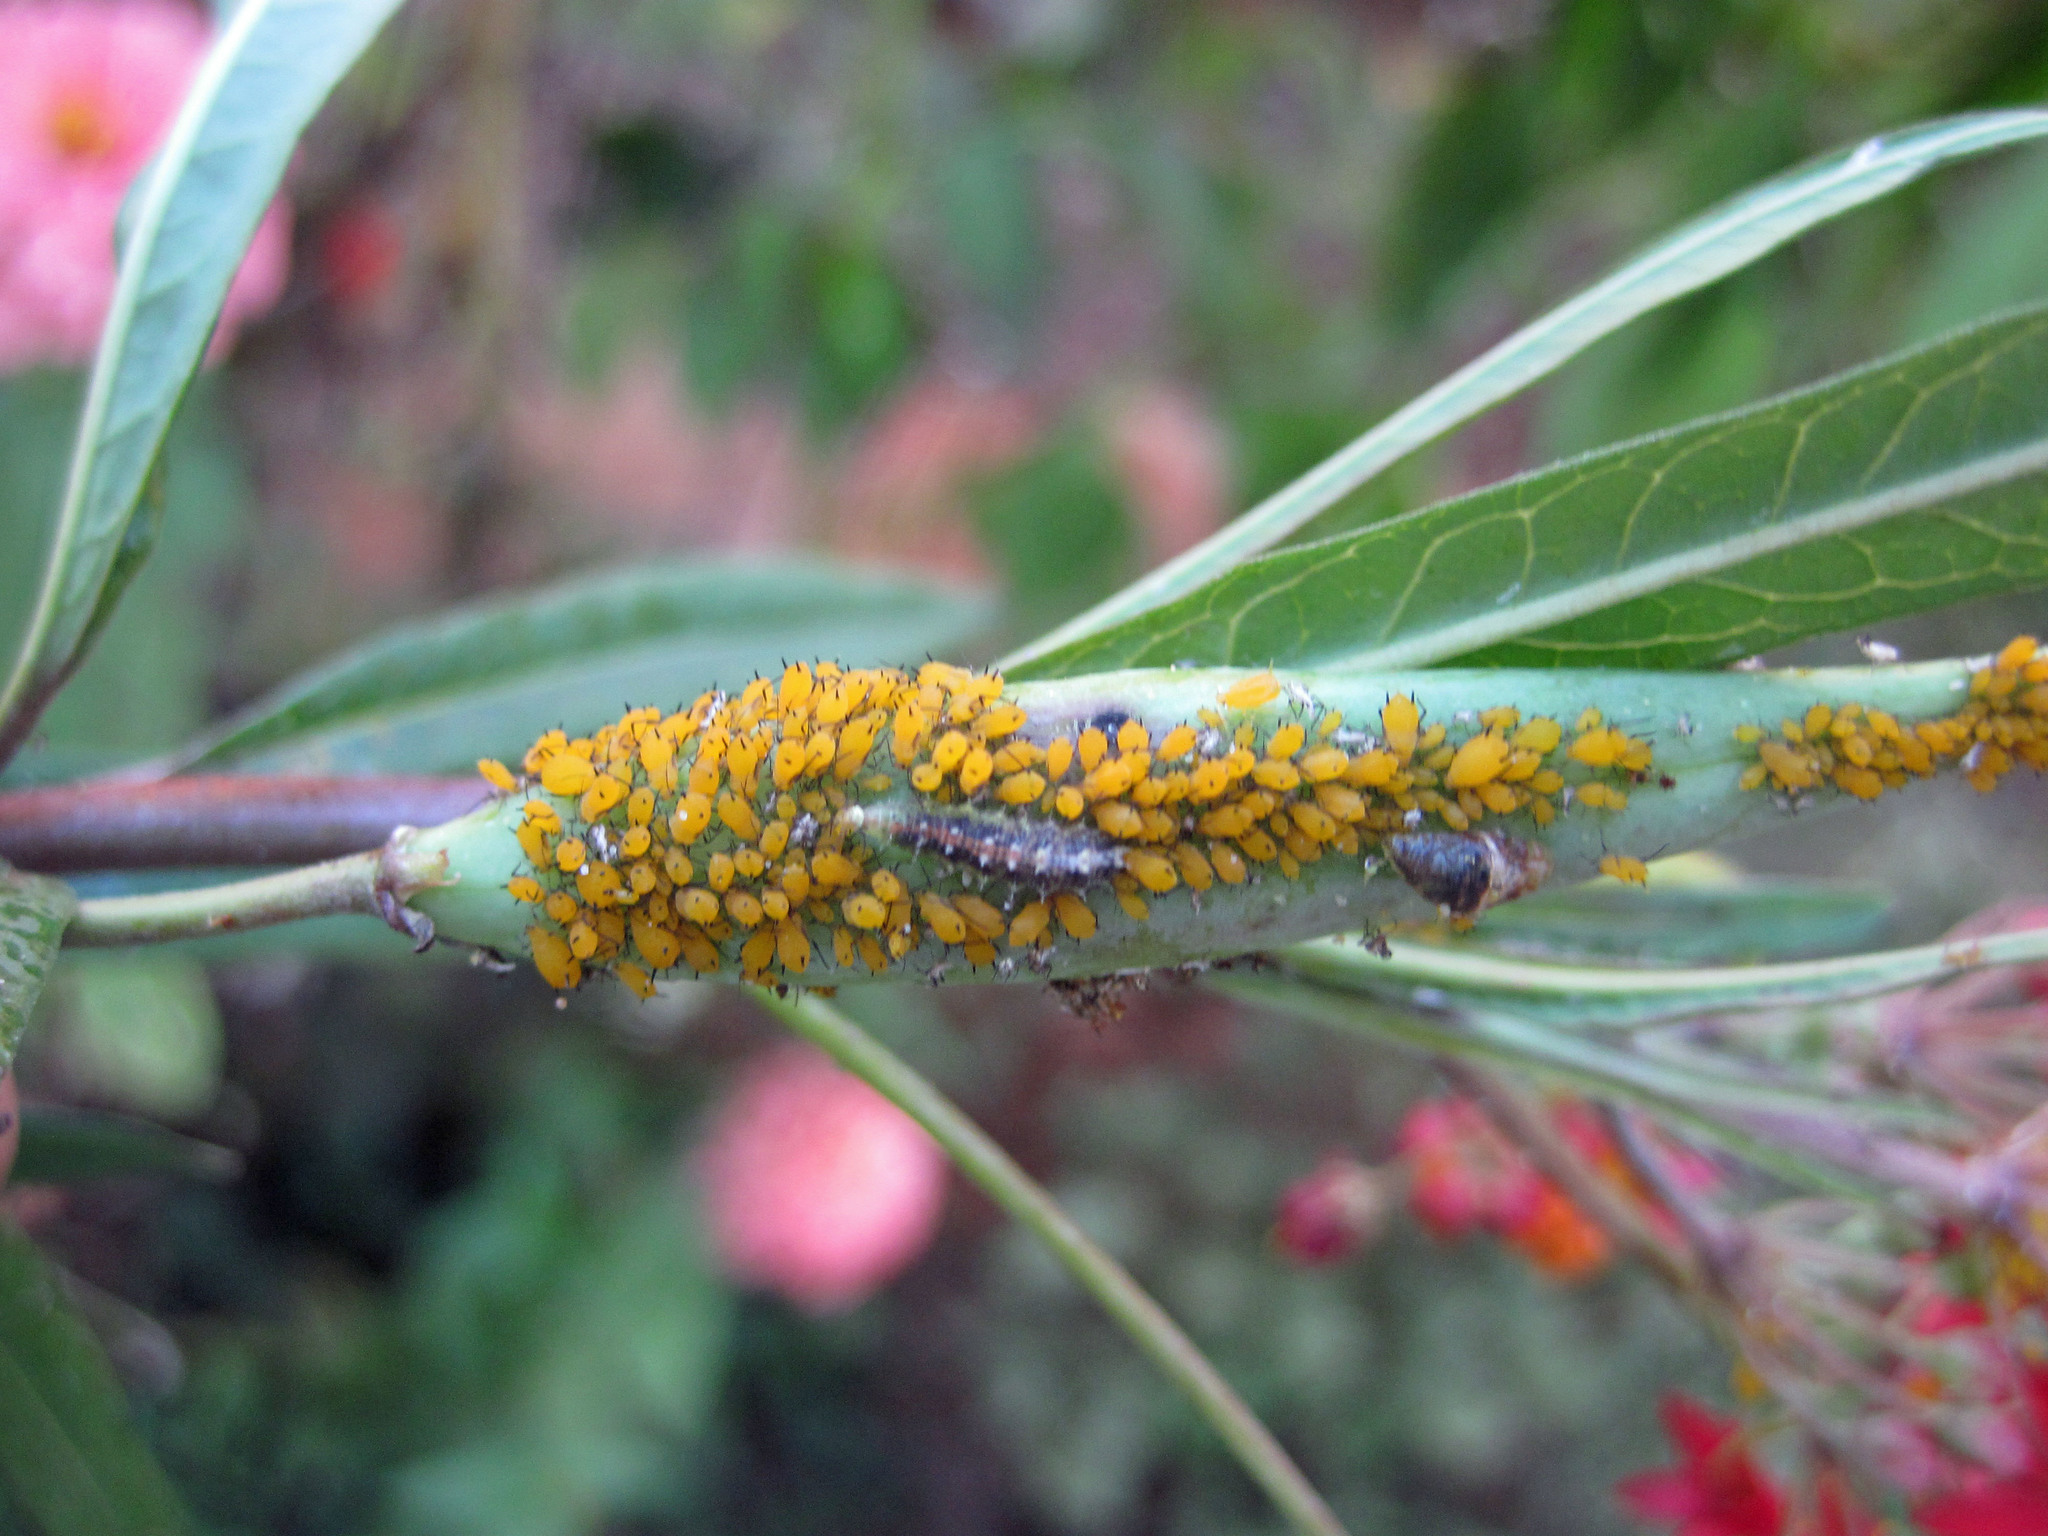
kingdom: Animalia
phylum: Arthropoda
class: Insecta
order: Hemiptera
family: Aphididae
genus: Aphis
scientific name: Aphis nerii
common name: Oleander aphid
